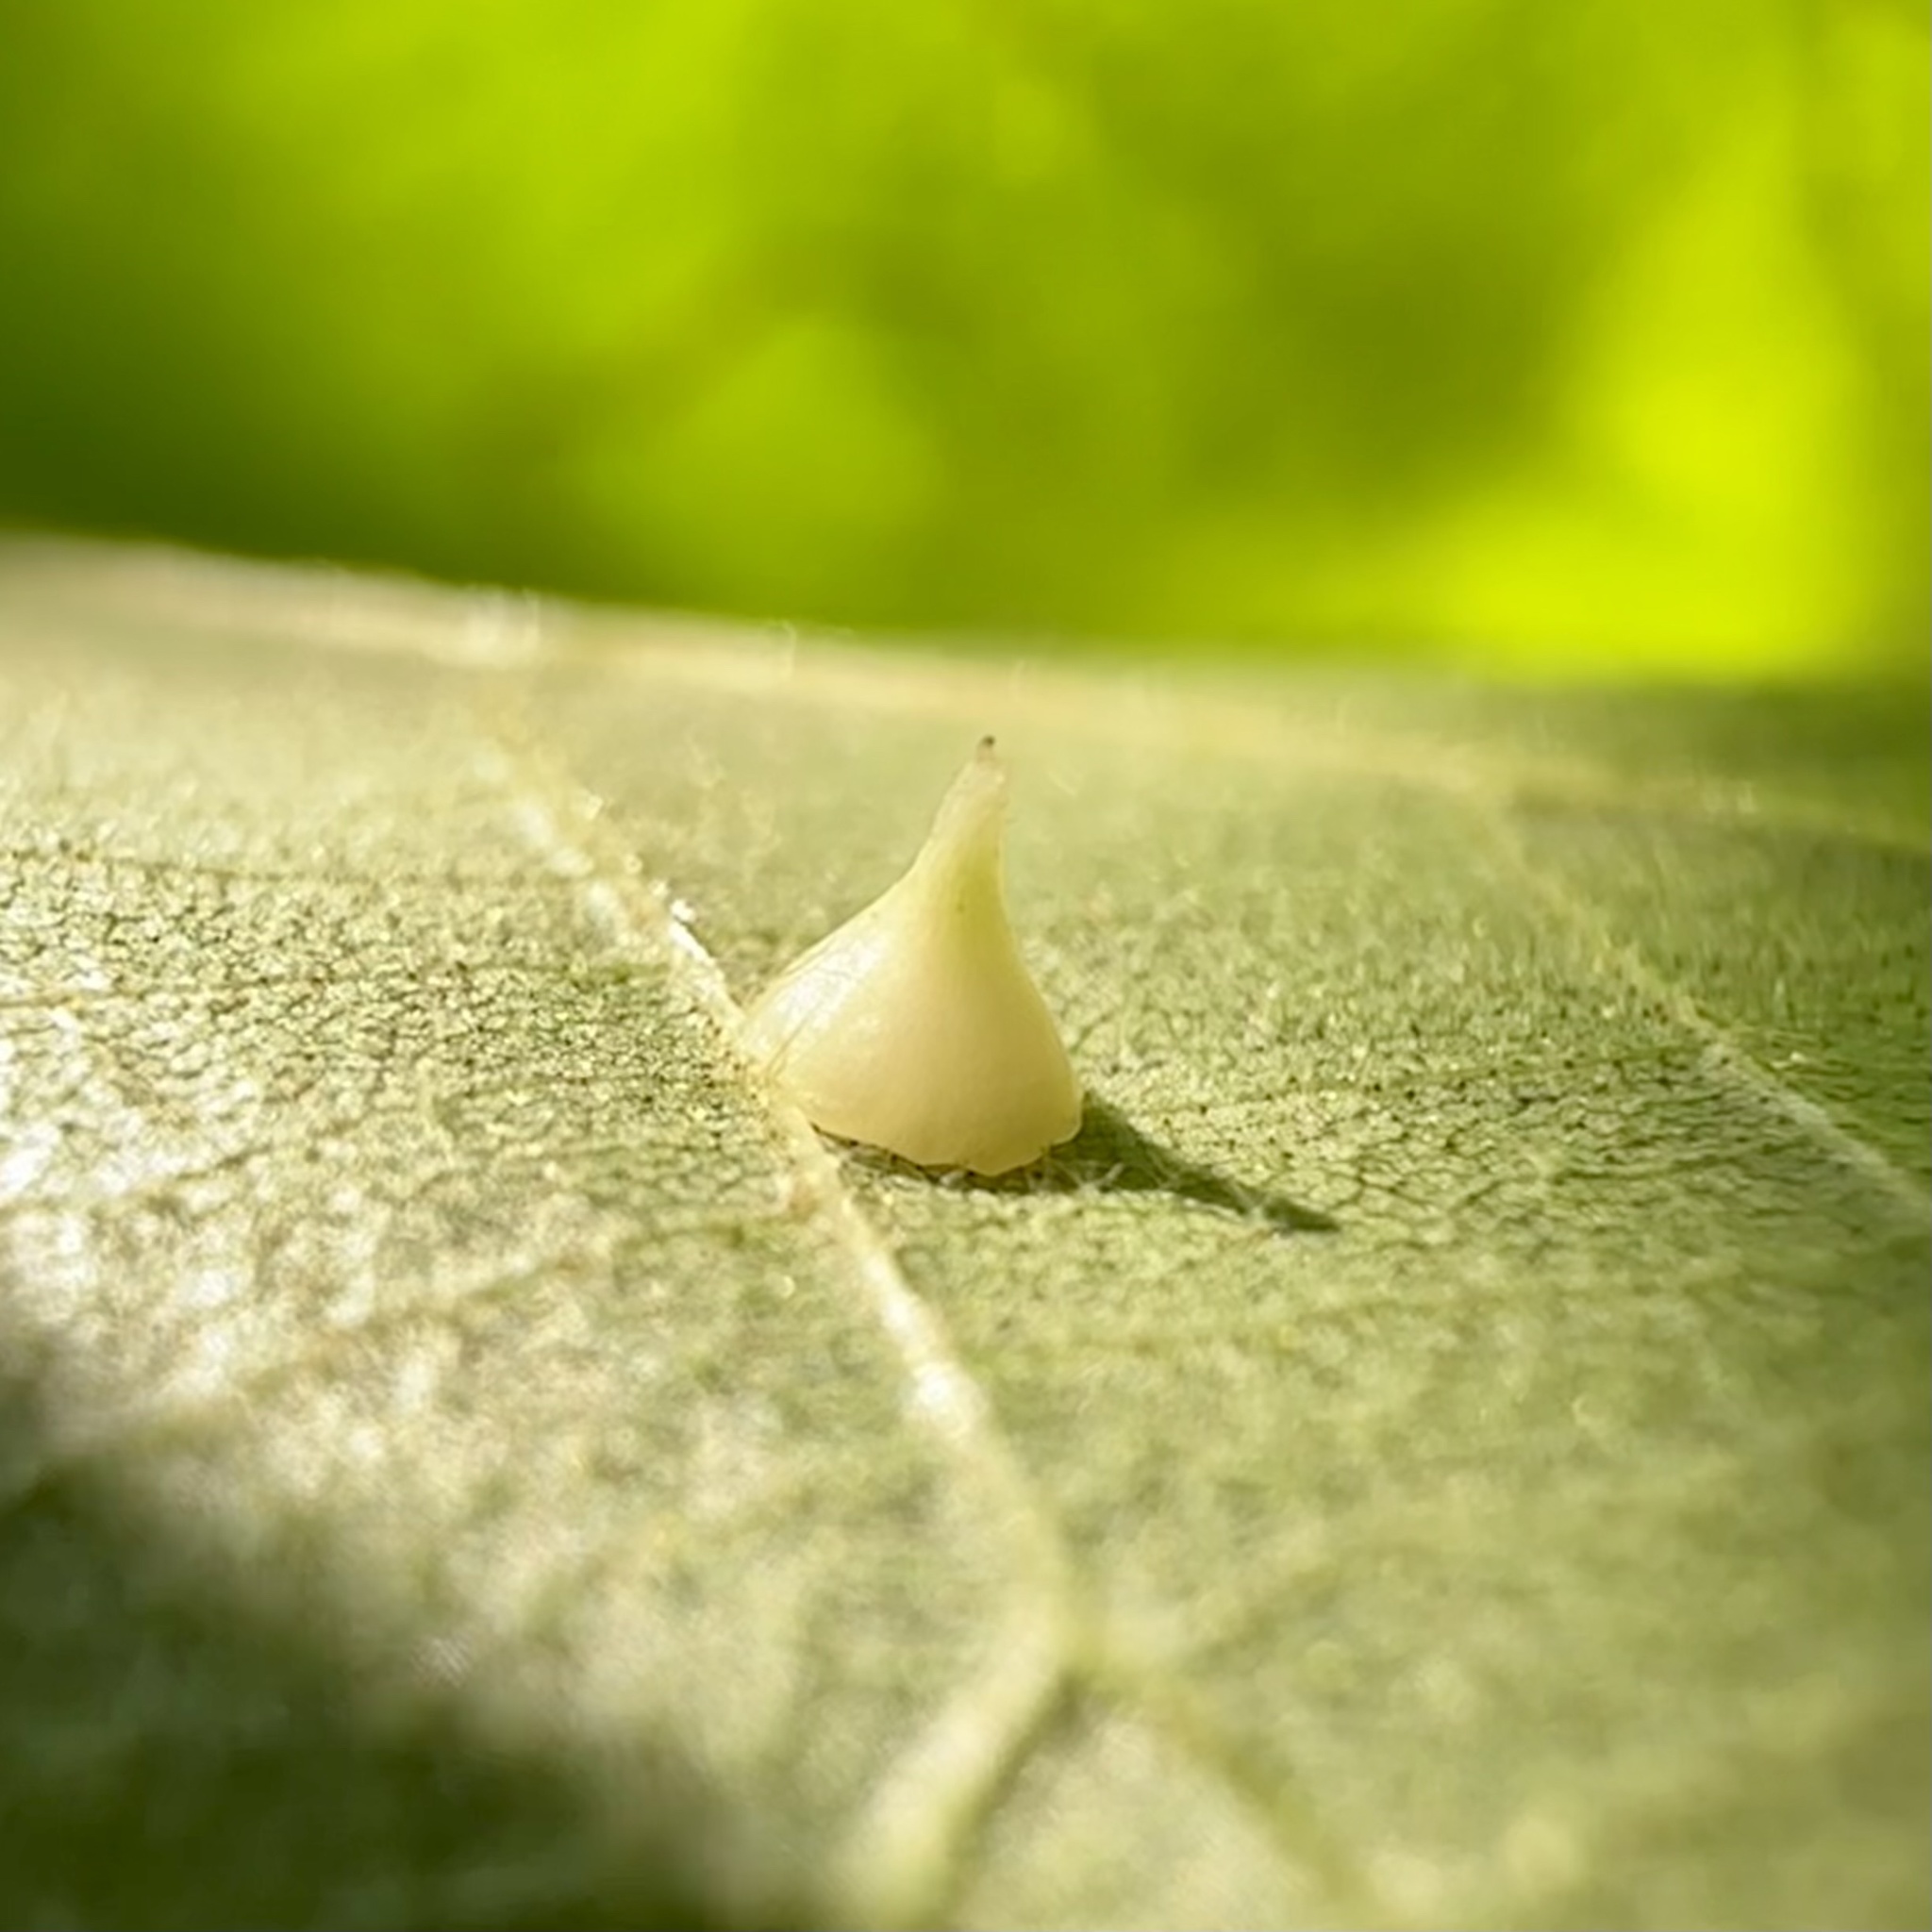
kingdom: Animalia
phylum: Arthropoda
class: Insecta
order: Diptera
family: Cecidomyiidae
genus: Caryomyia
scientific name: Caryomyia sanguinolenta
